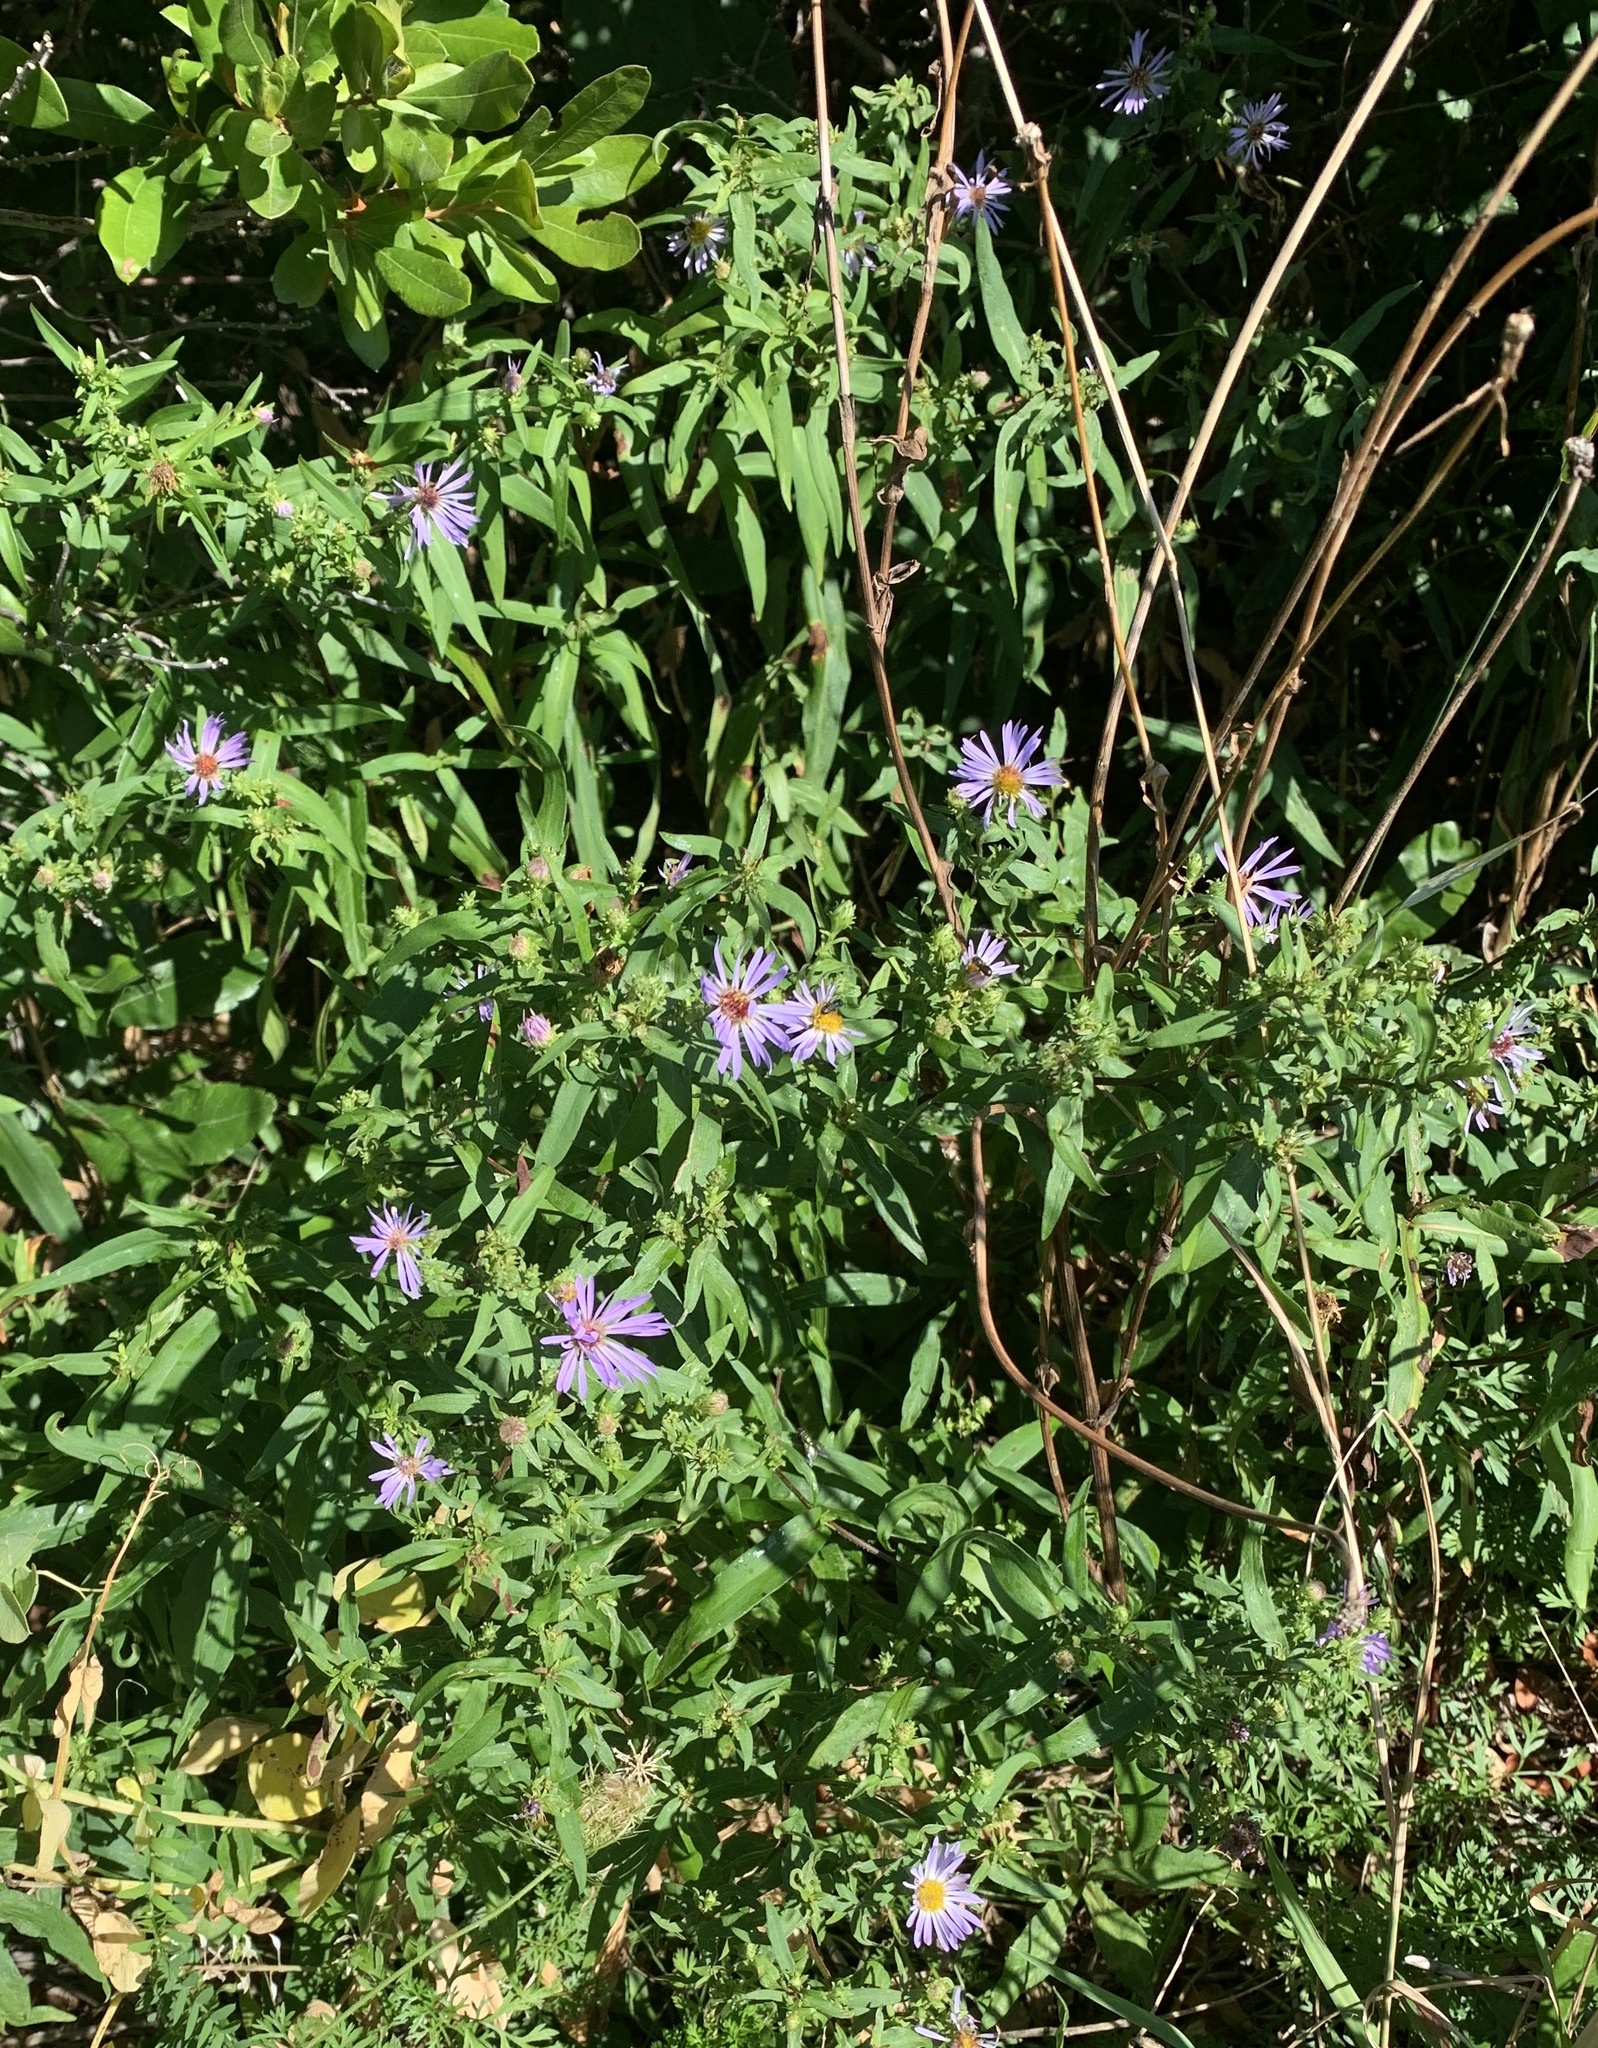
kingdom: Plantae
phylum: Tracheophyta
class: Magnoliopsida
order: Asterales
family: Asteraceae
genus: Symphyotrichum
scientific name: Symphyotrichum novi-belgii
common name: Michaelmas daisy
